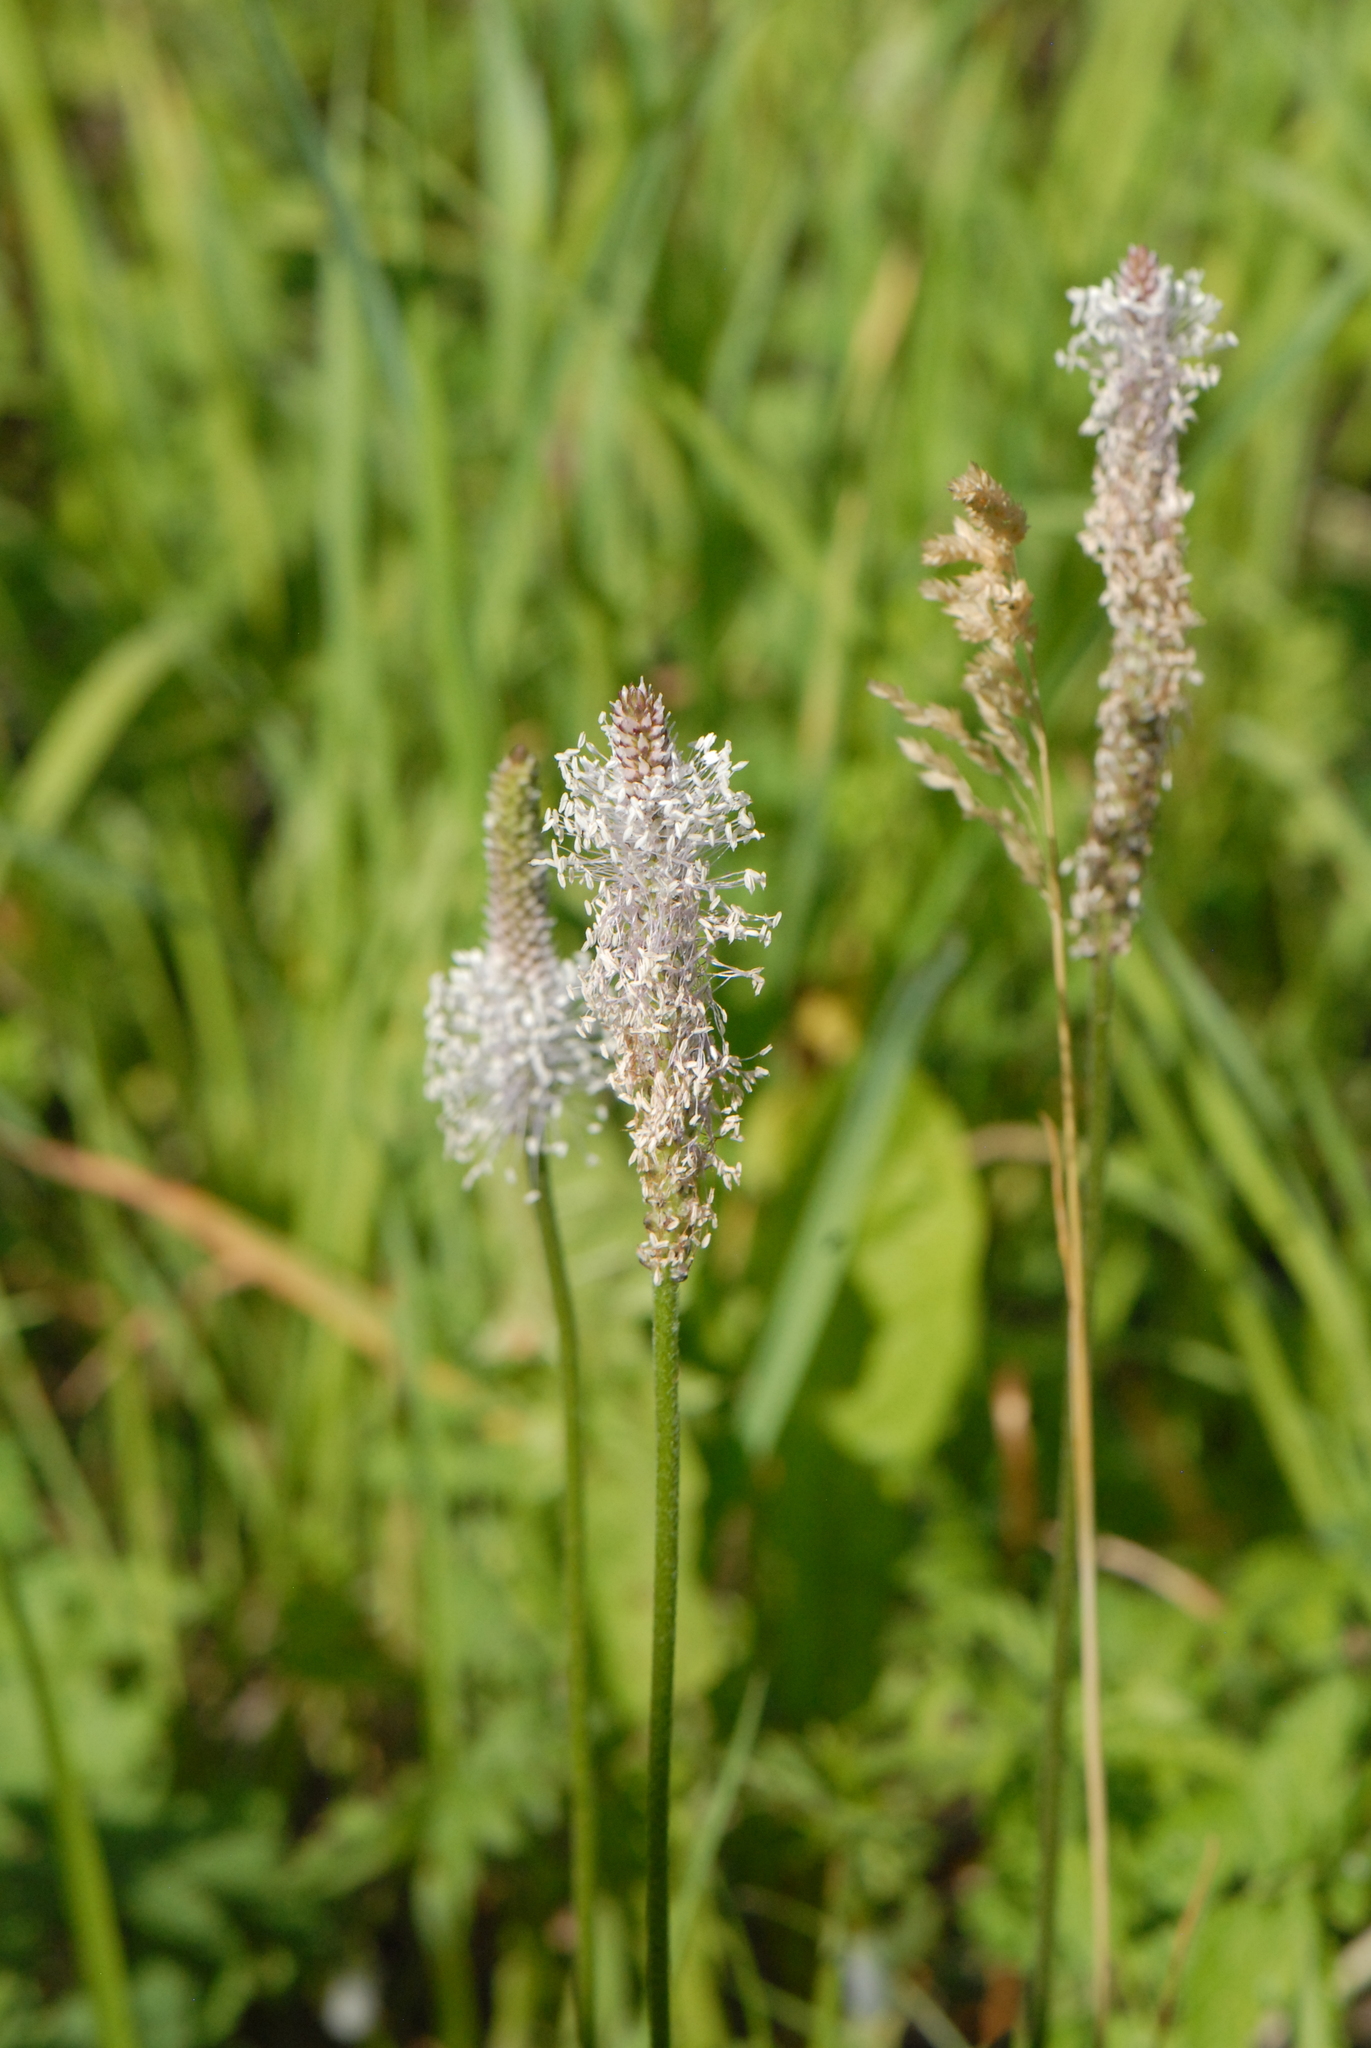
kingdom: Plantae
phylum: Tracheophyta
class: Magnoliopsida
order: Lamiales
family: Plantaginaceae
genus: Plantago
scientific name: Plantago media
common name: Hoary plantain
